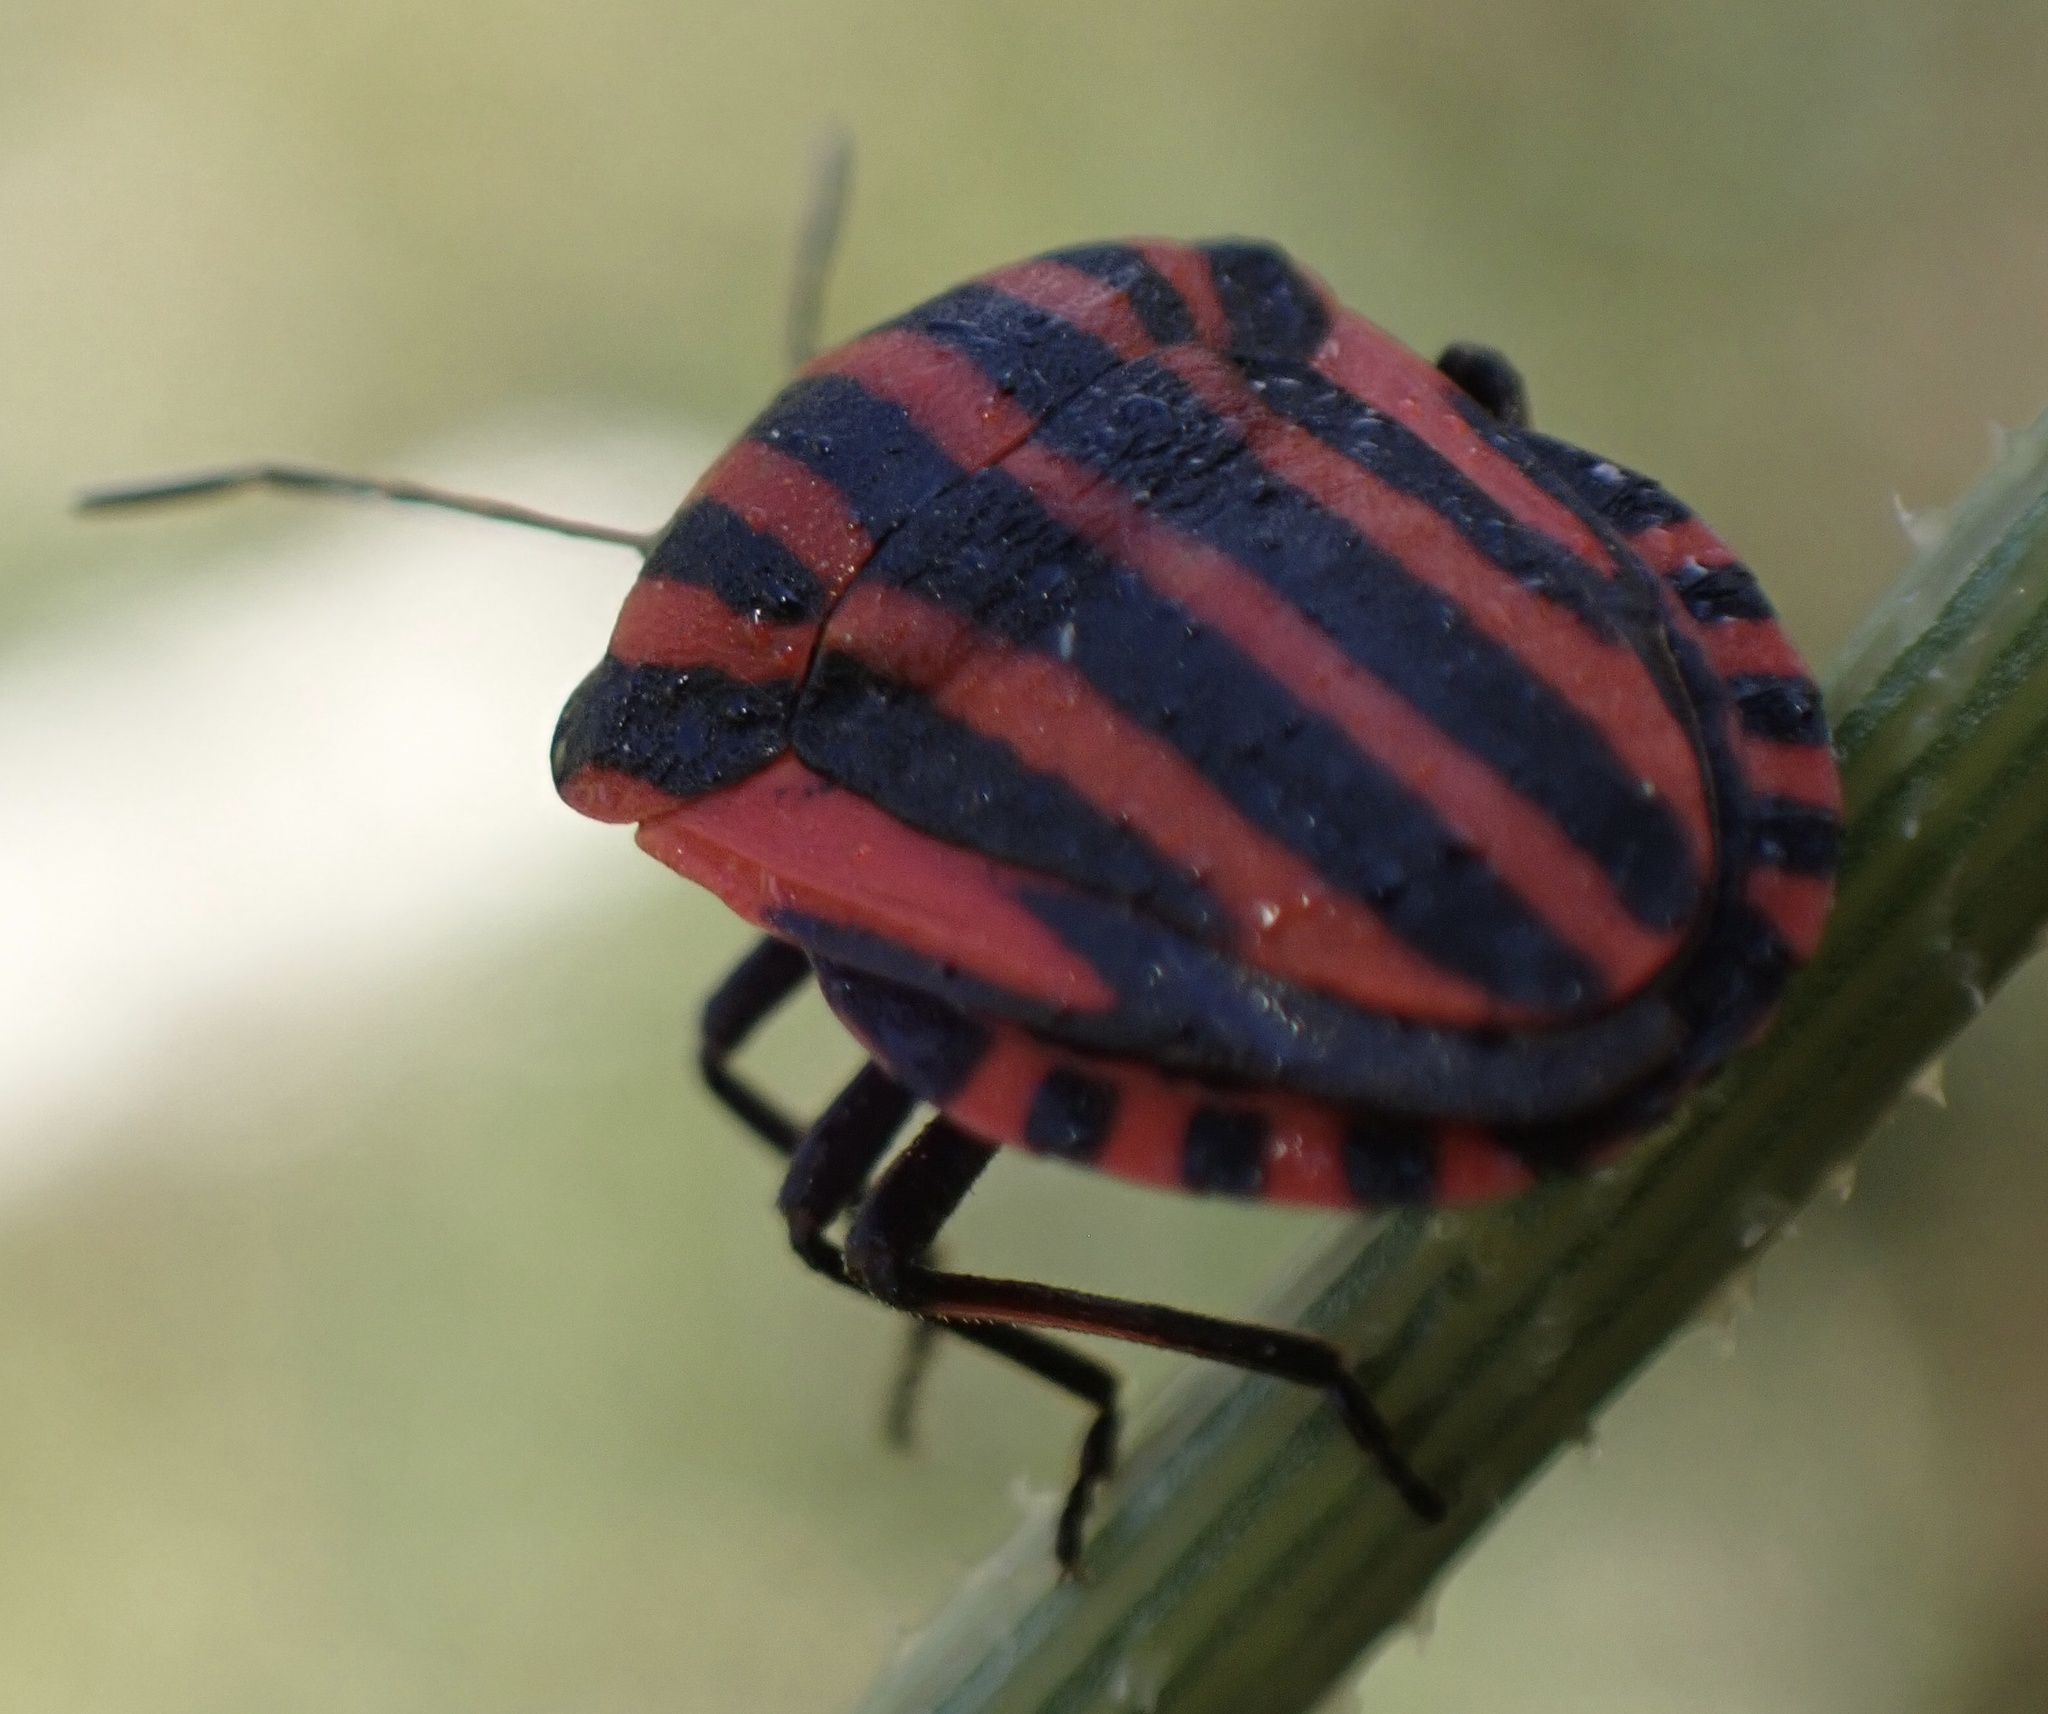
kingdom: Animalia
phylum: Arthropoda
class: Insecta
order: Hemiptera
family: Pentatomidae
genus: Graphosoma
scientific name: Graphosoma italicum
